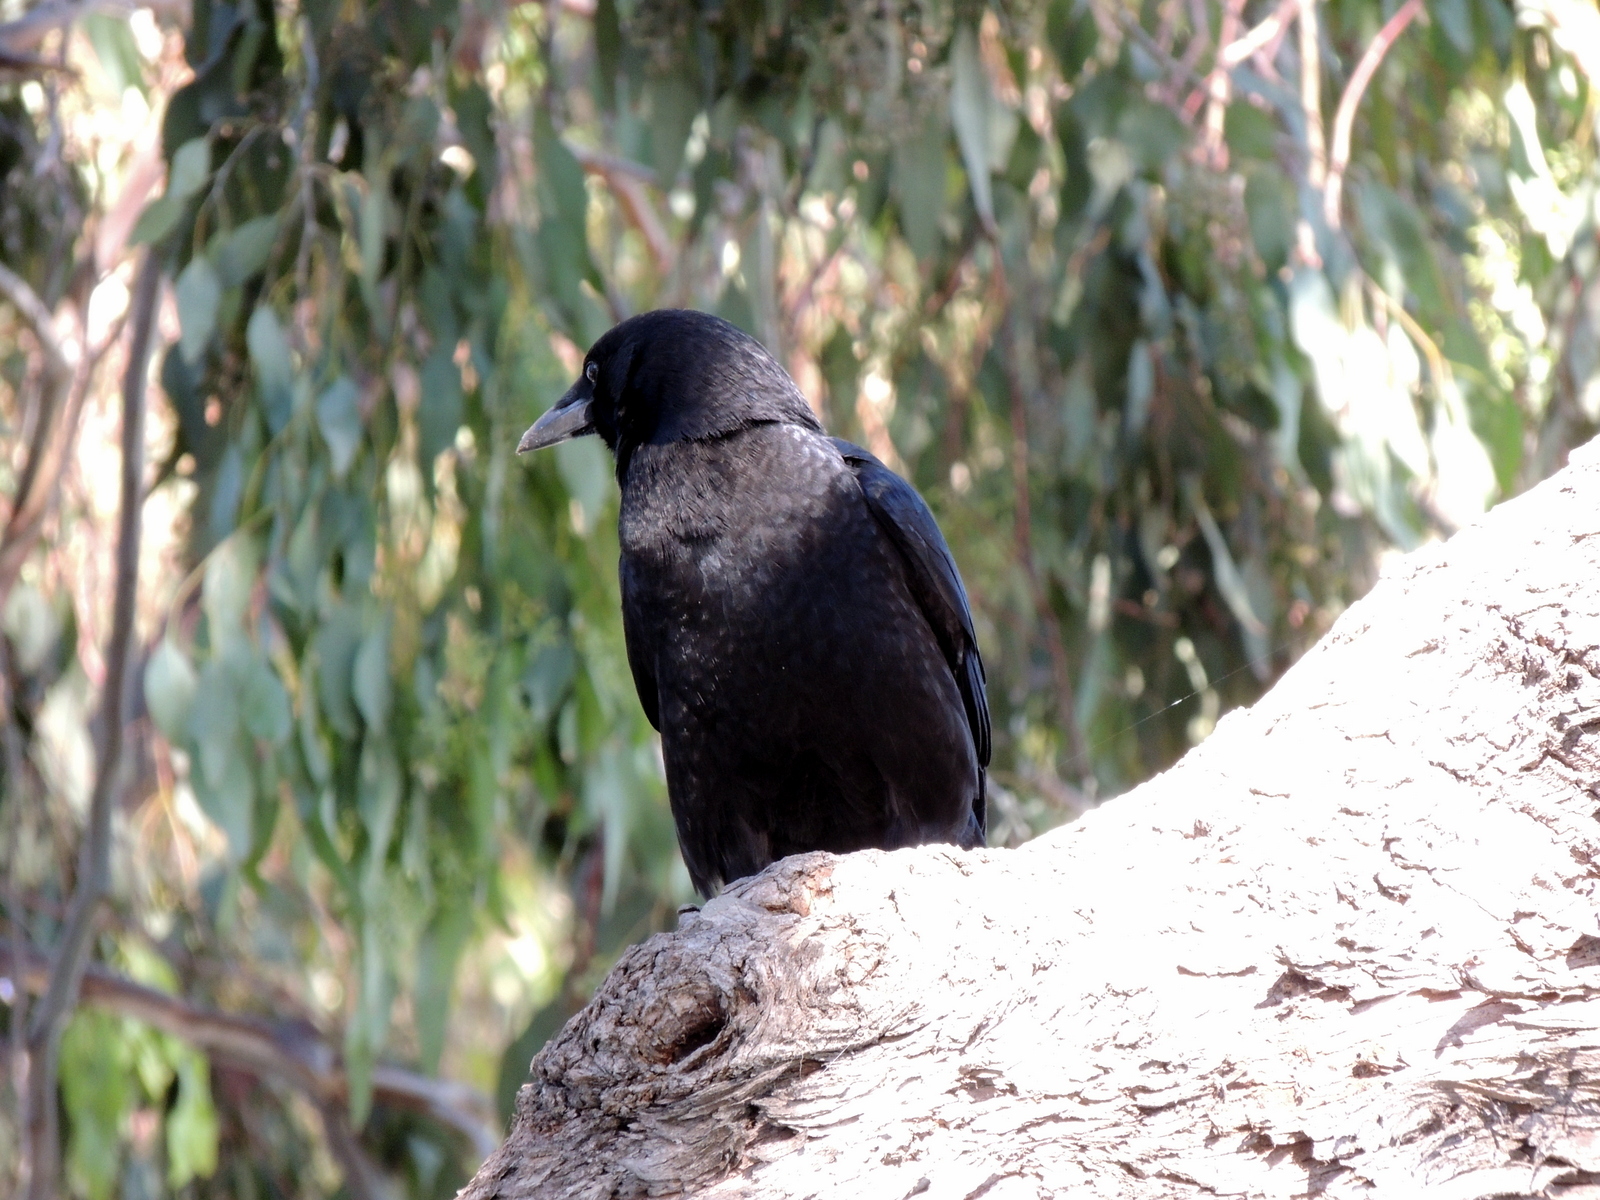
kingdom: Animalia
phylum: Chordata
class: Aves
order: Passeriformes
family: Corvidae
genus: Corvus
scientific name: Corvus brachyrhynchos
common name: American crow
